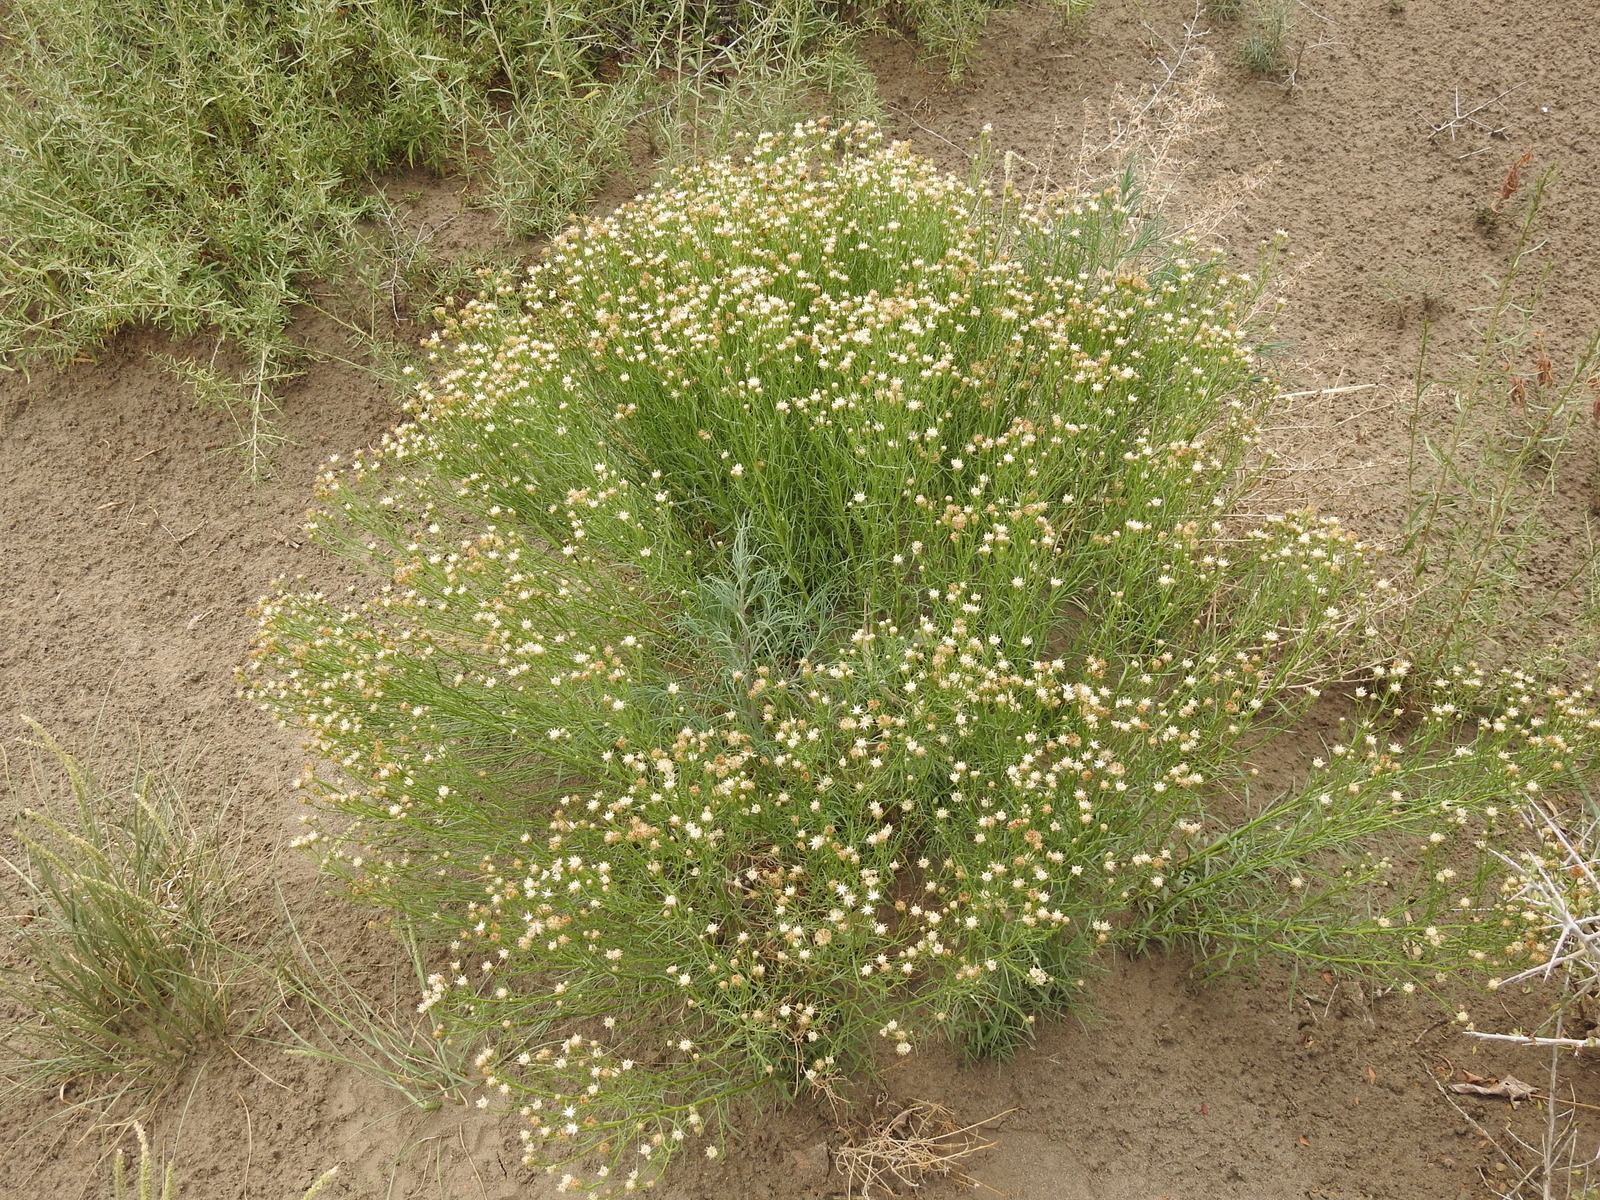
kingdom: Plantae
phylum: Tracheophyta
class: Magnoliopsida
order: Asterales
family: Asteraceae
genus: Baccharis
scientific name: Baccharis darwinii
